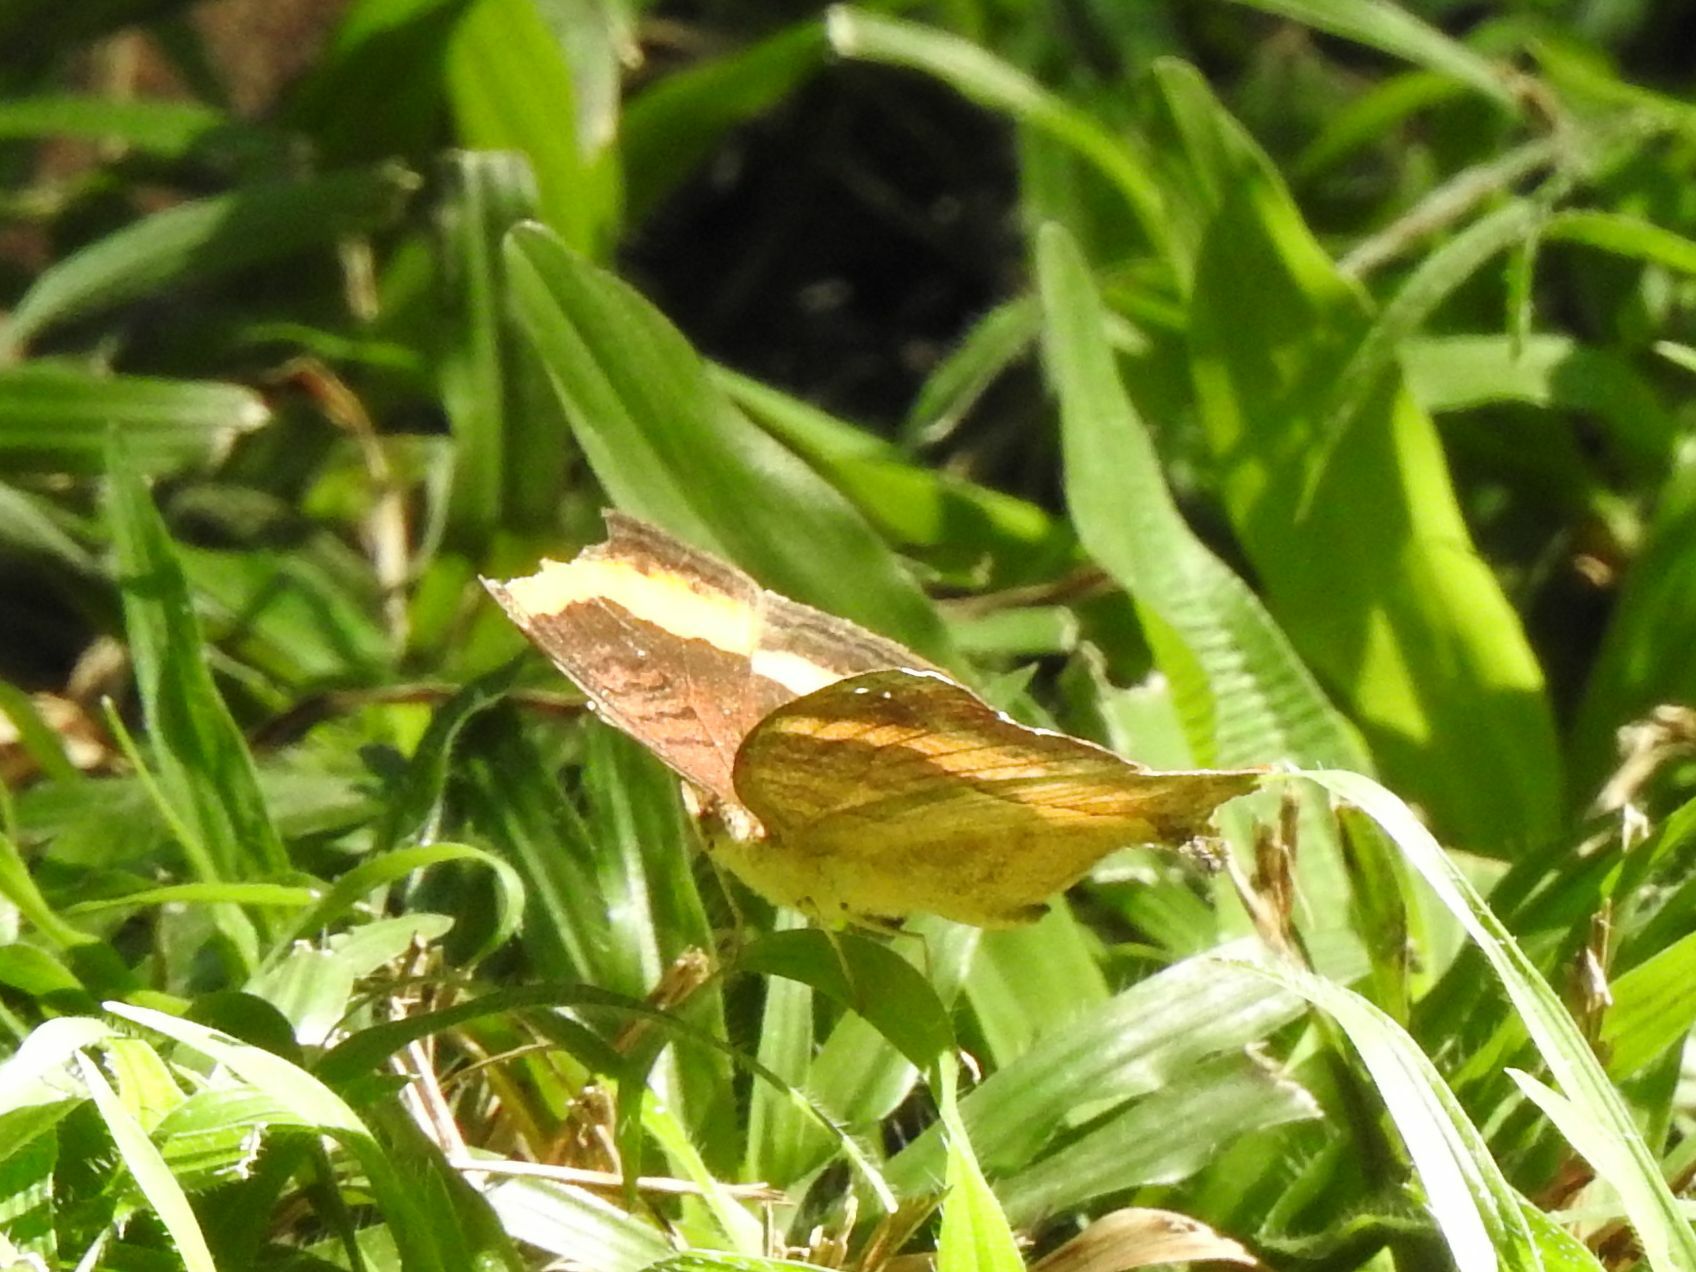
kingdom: Animalia
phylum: Arthropoda
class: Insecta
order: Lepidoptera
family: Nymphalidae
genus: Junonia
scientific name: Junonia terea
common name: Soldier pansy
